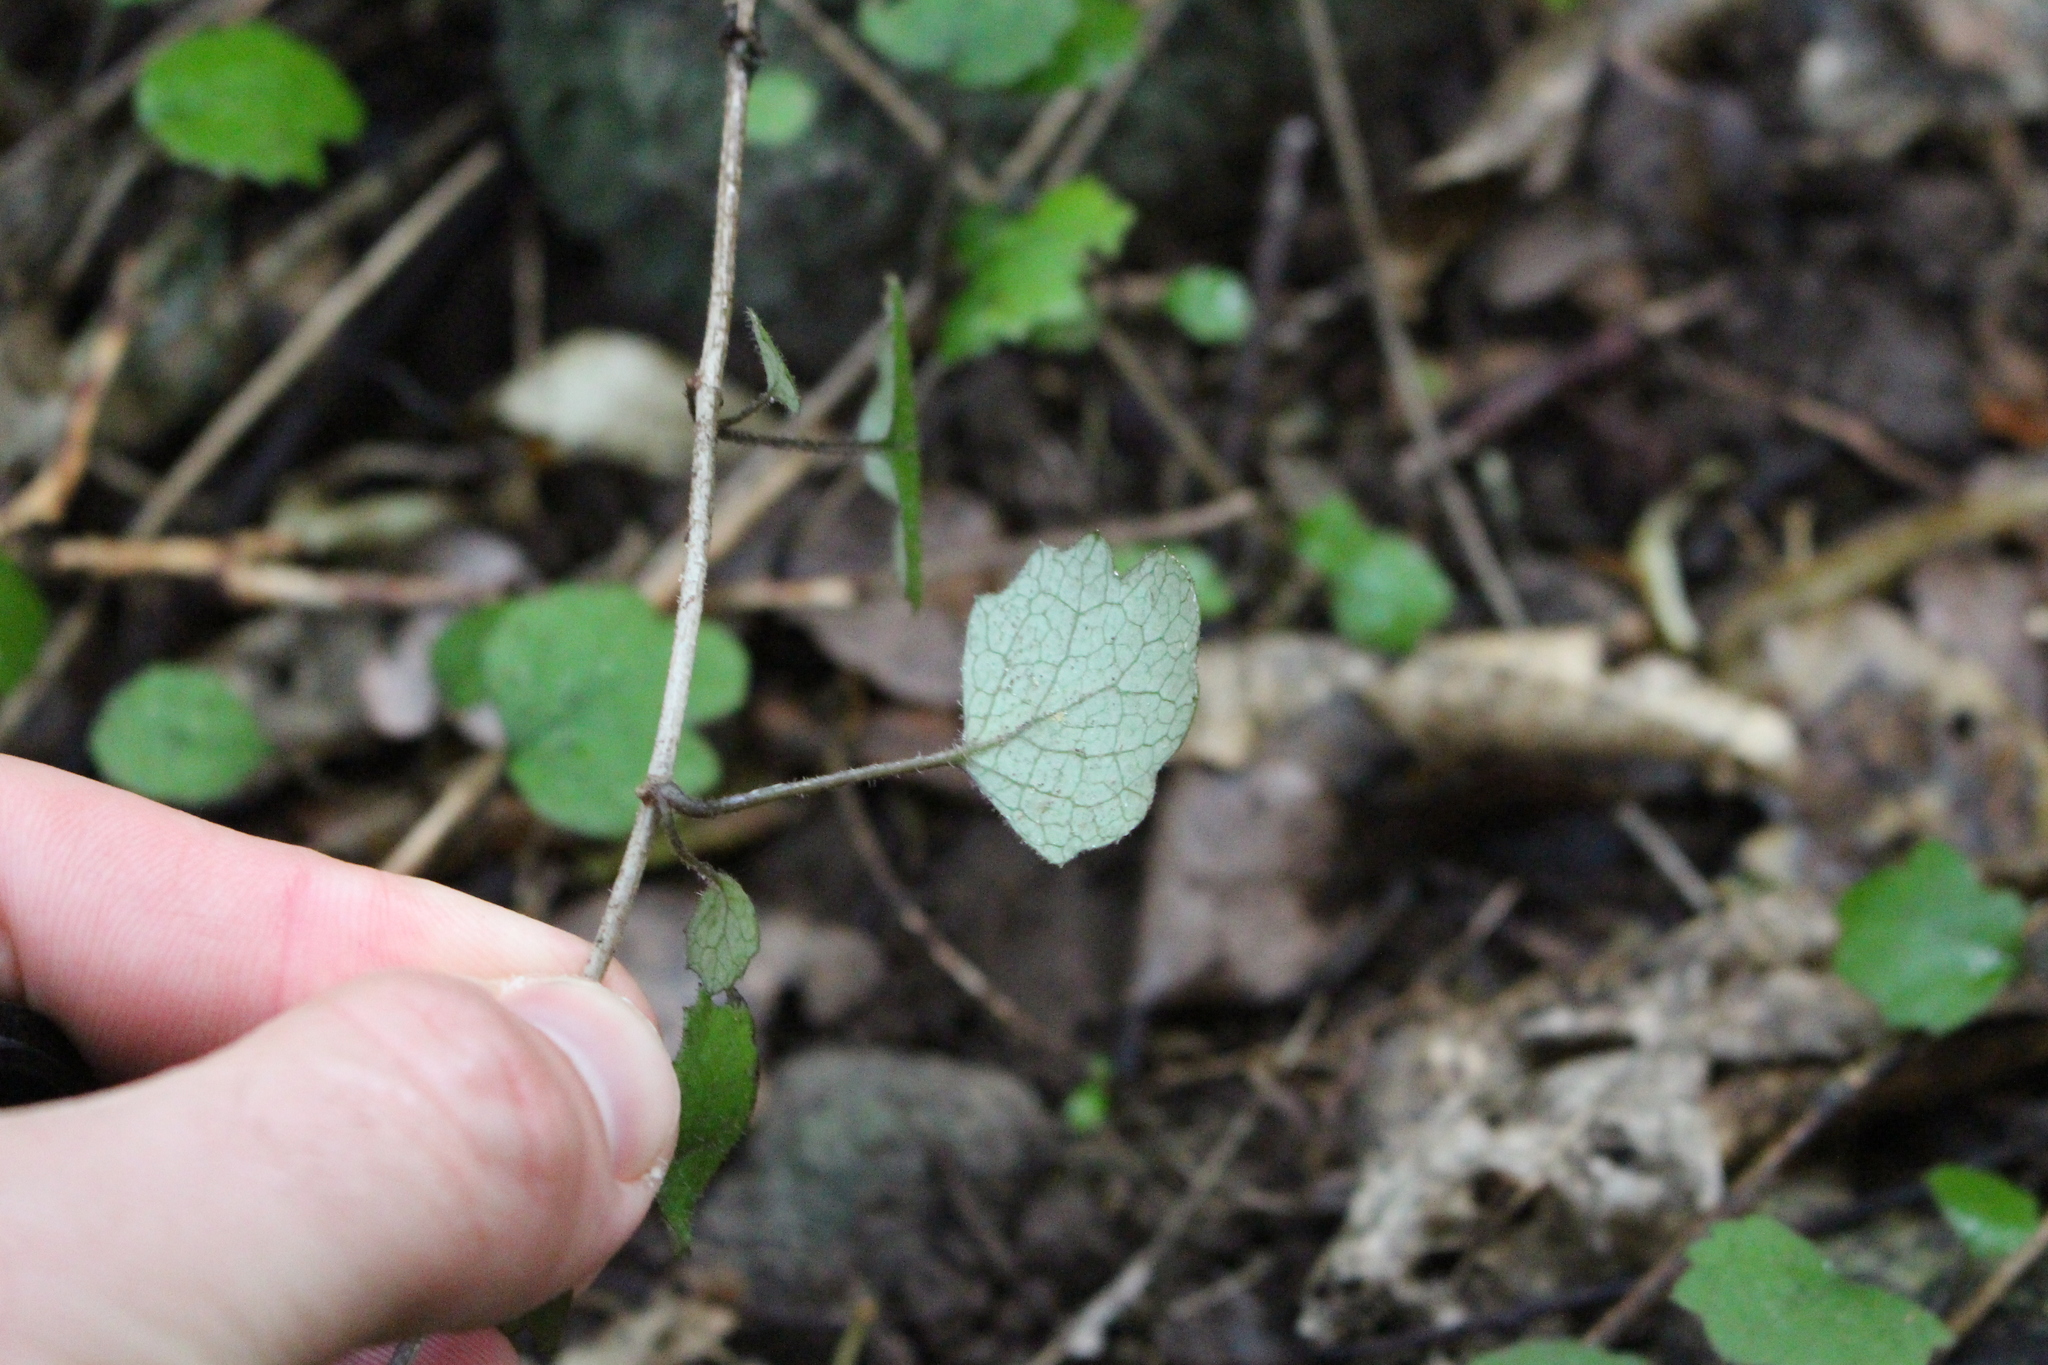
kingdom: Plantae
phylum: Tracheophyta
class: Magnoliopsida
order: Asterales
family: Asteraceae
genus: Brachyglottis
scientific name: Brachyglottis sciadophila
